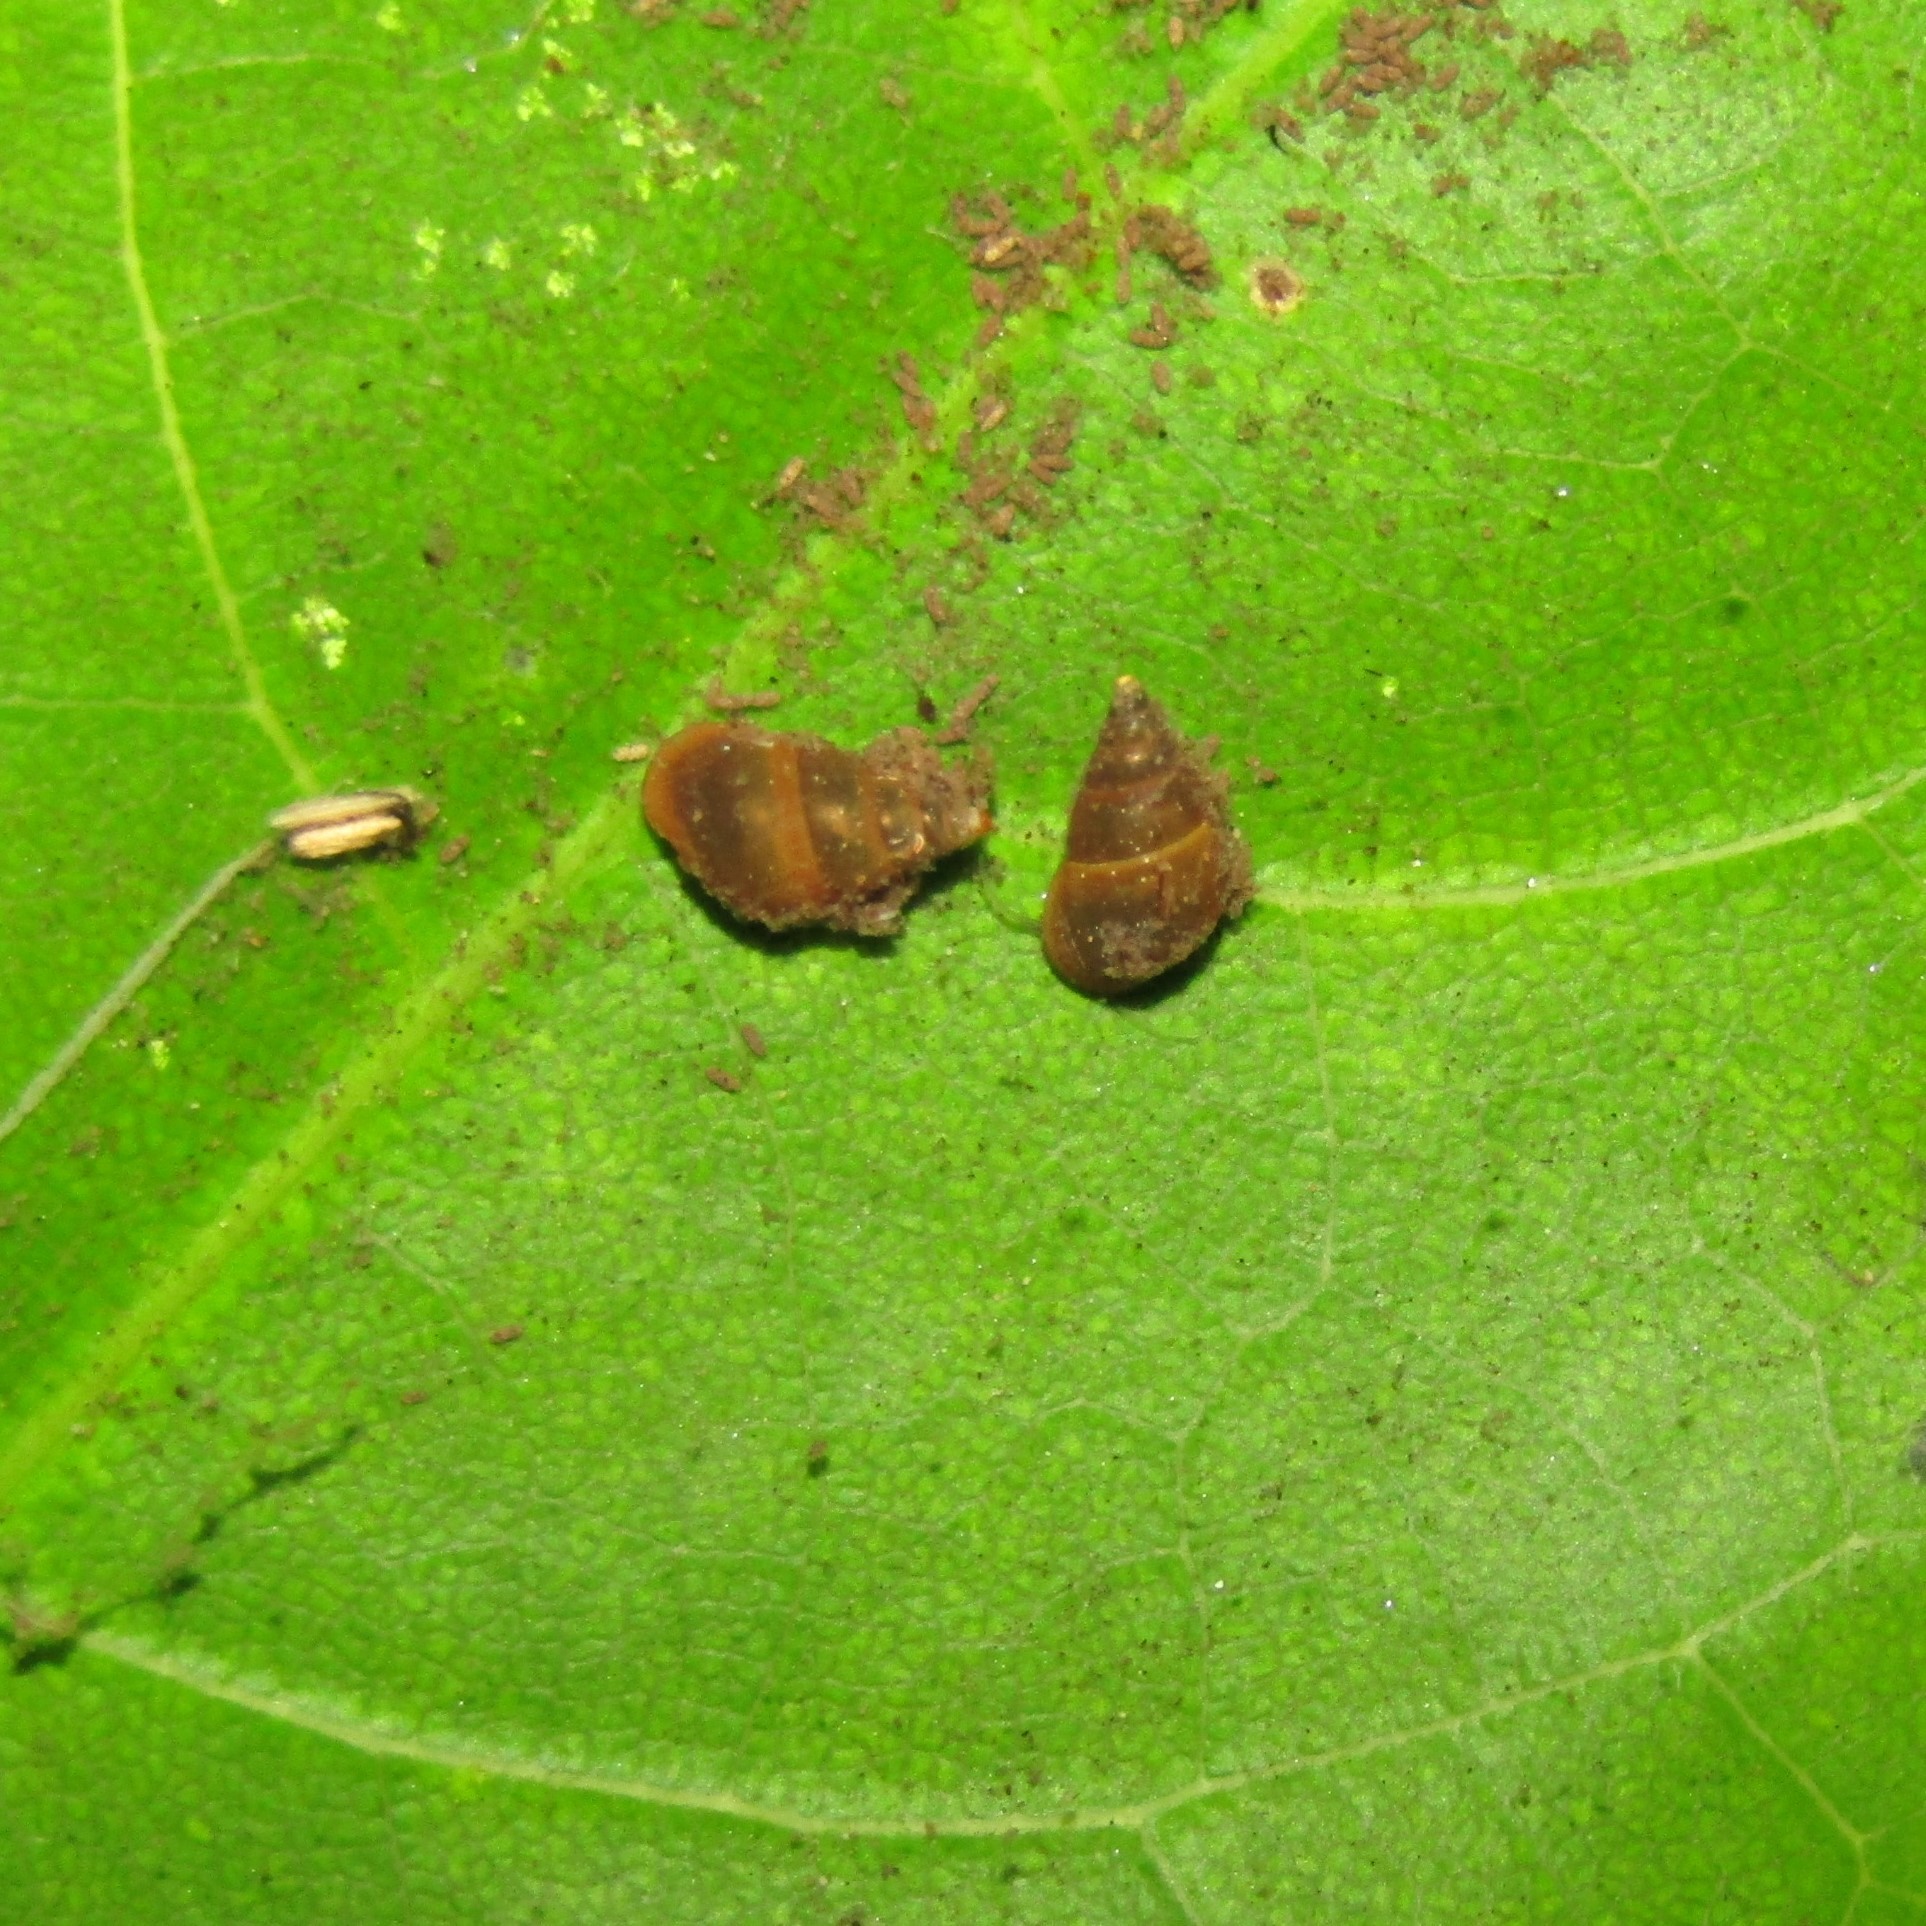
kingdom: Animalia
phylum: Mollusca
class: Gastropoda
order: Littorinimorpha
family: Tateidae
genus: Potamopyrgus
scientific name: Potamopyrgus antipodarum
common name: Jenkins' spire snail
